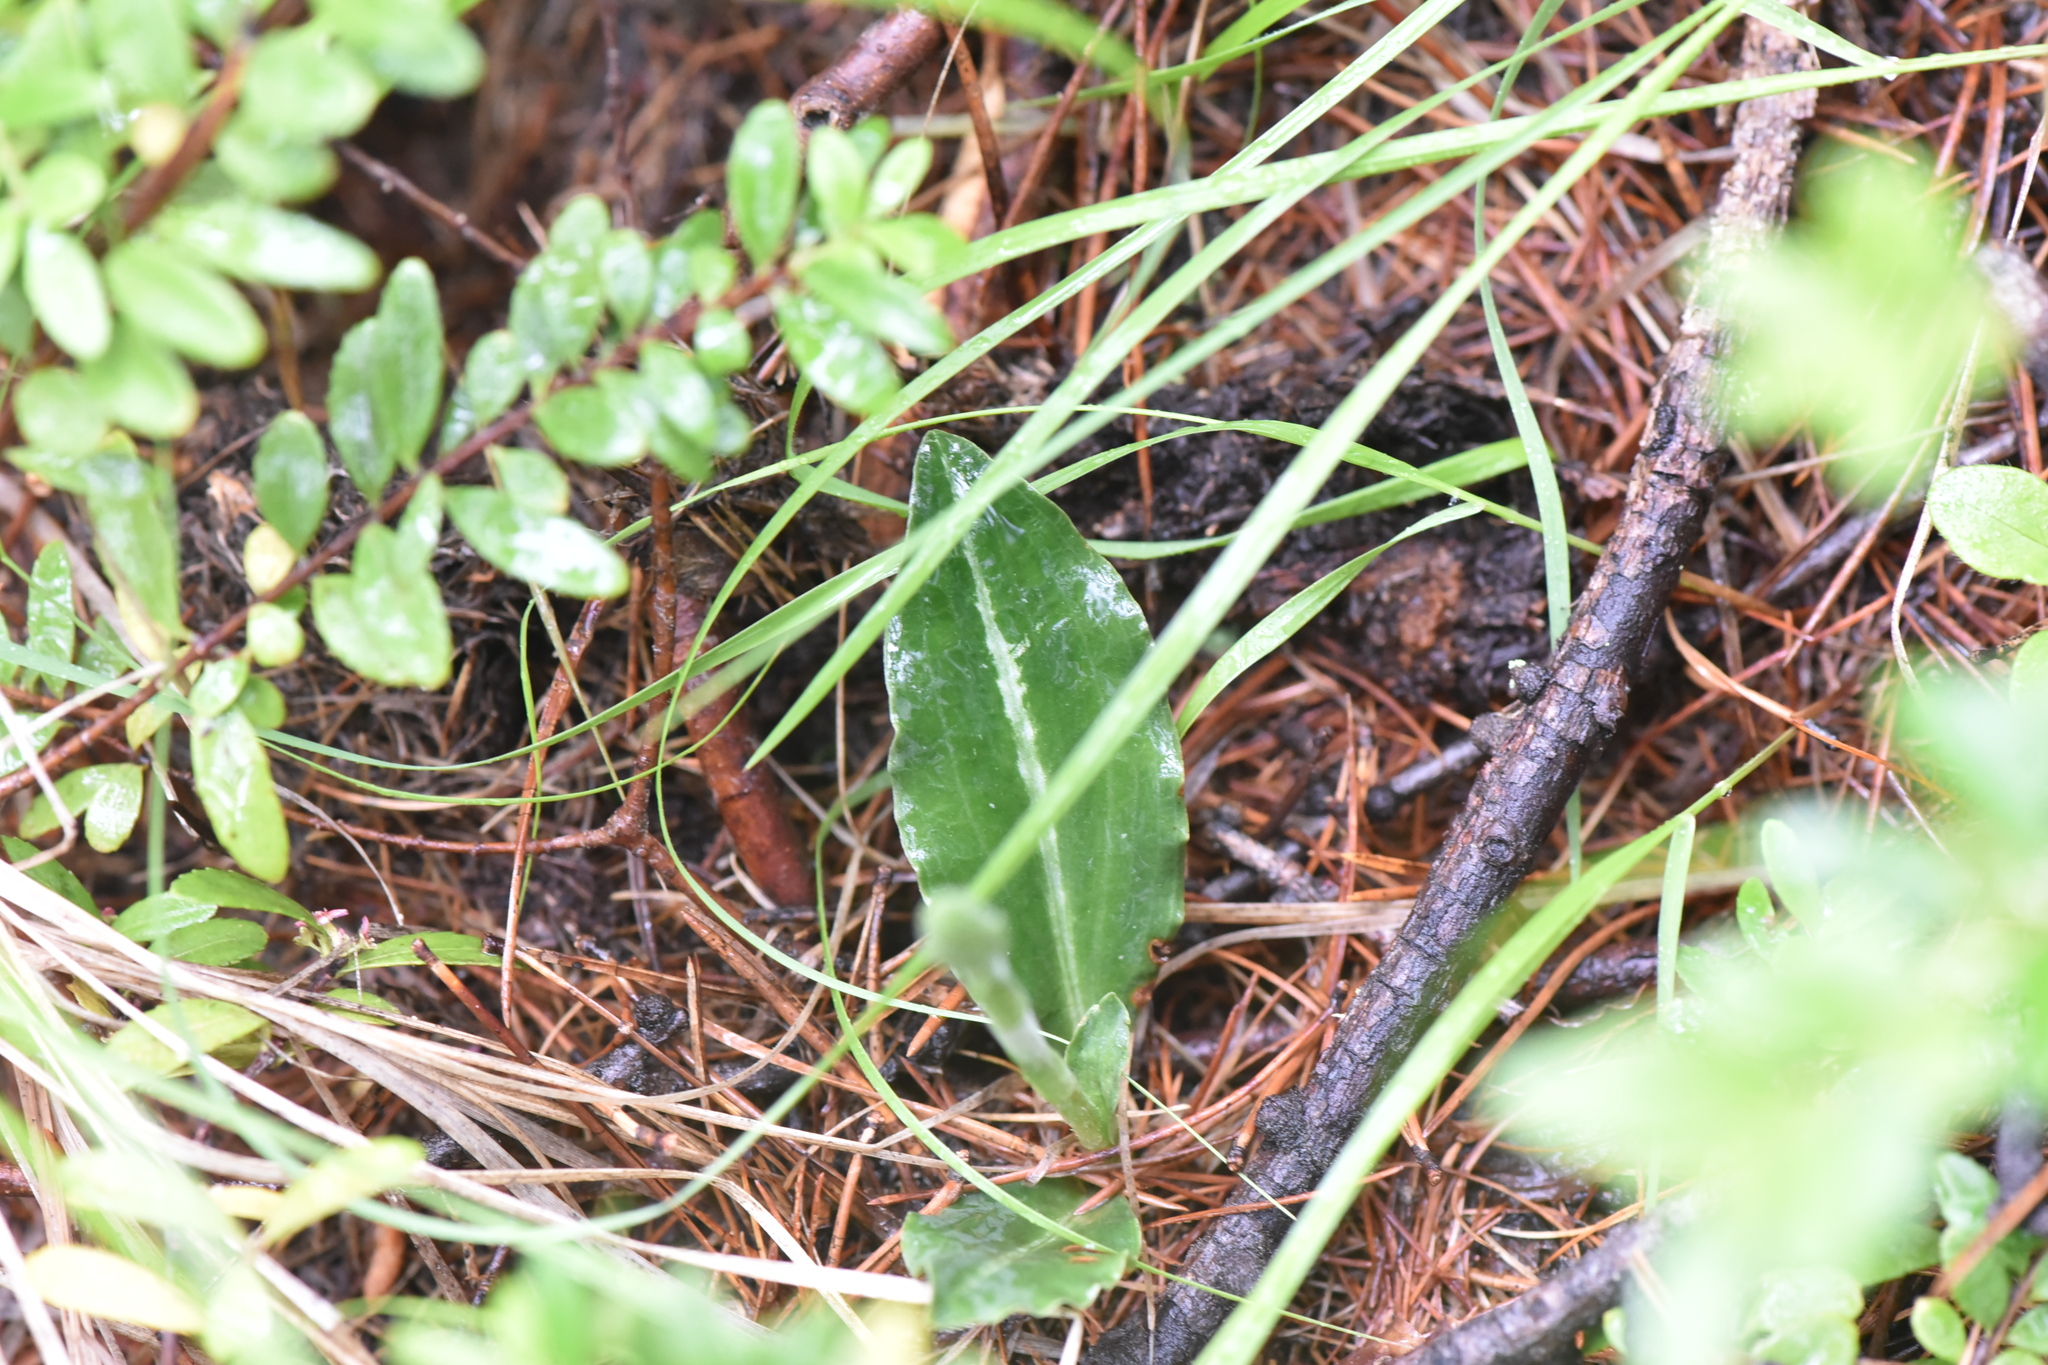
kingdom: Plantae
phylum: Tracheophyta
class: Liliopsida
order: Asparagales
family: Orchidaceae
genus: Goodyera
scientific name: Goodyera oblongifolia
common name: Giant rattlesnake-plantain
